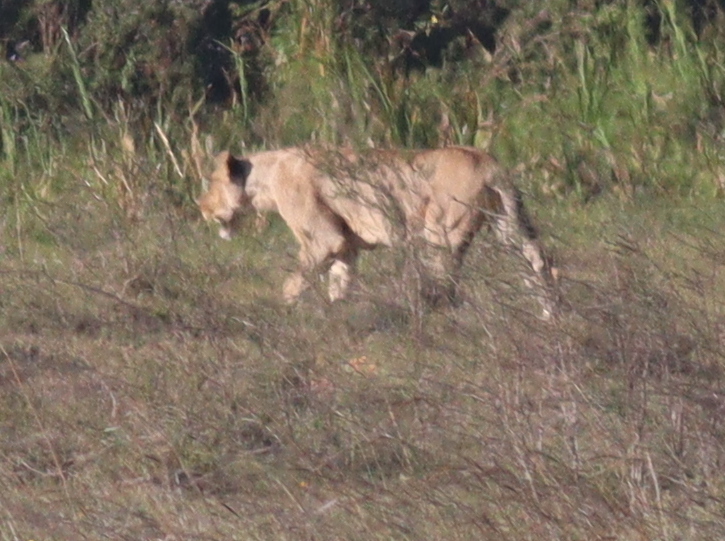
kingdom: Animalia
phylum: Chordata
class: Mammalia
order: Carnivora
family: Felidae
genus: Panthera
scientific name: Panthera leo
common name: Lion
